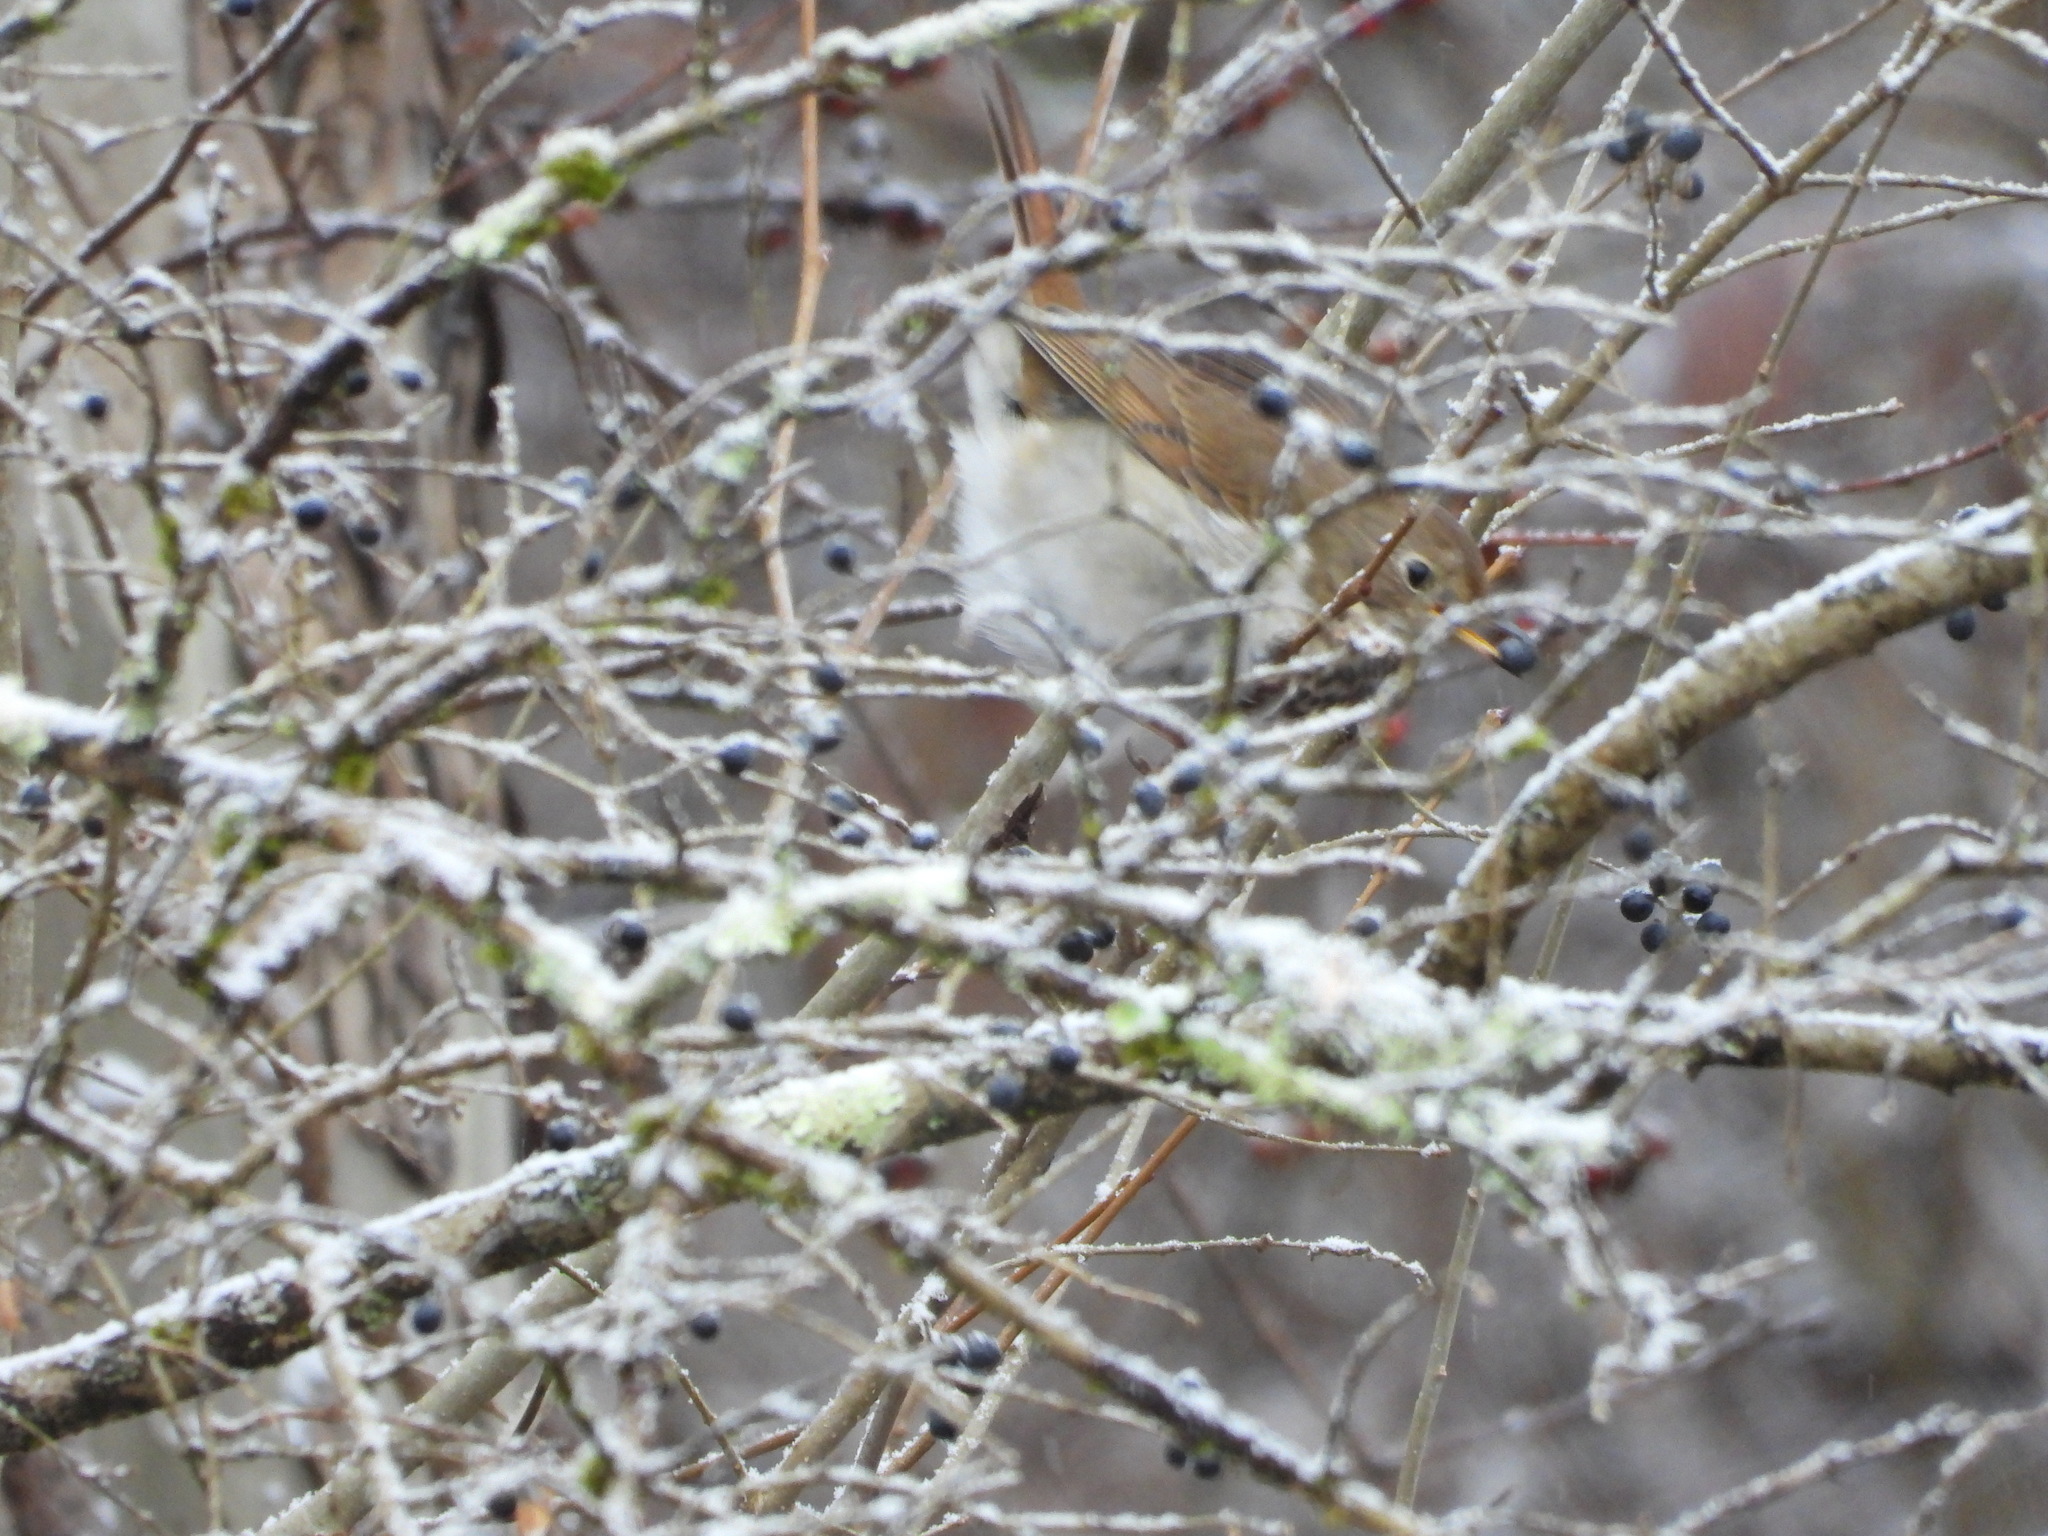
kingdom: Animalia
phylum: Chordata
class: Aves
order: Passeriformes
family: Turdidae
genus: Catharus
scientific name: Catharus guttatus
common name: Hermit thrush
